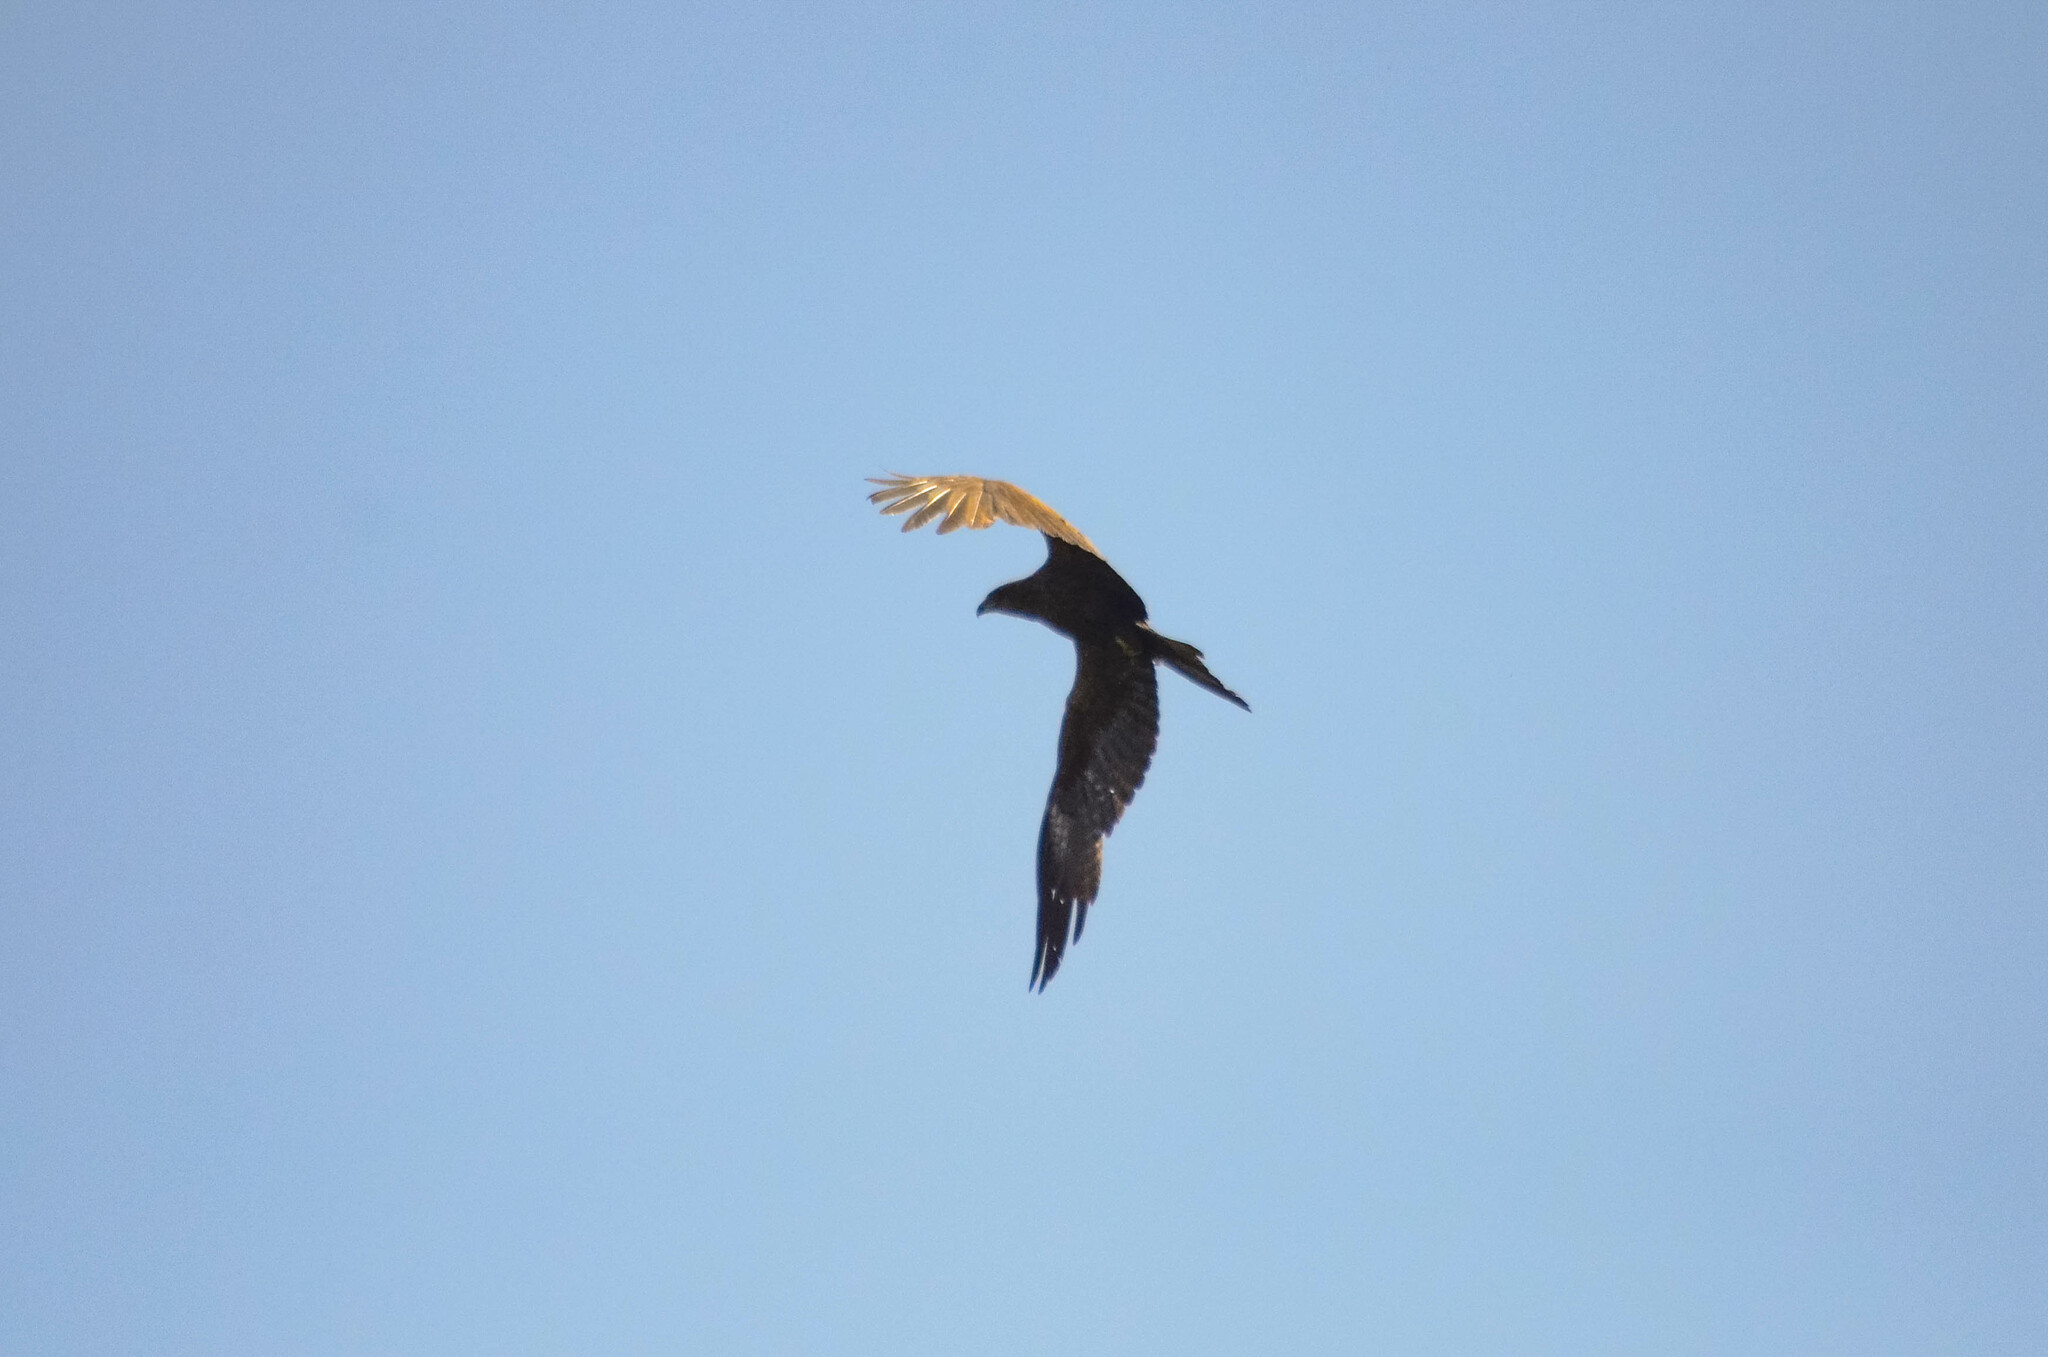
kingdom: Animalia
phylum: Chordata
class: Aves
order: Accipitriformes
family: Accipitridae
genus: Milvus
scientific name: Milvus migrans
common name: Black kite
